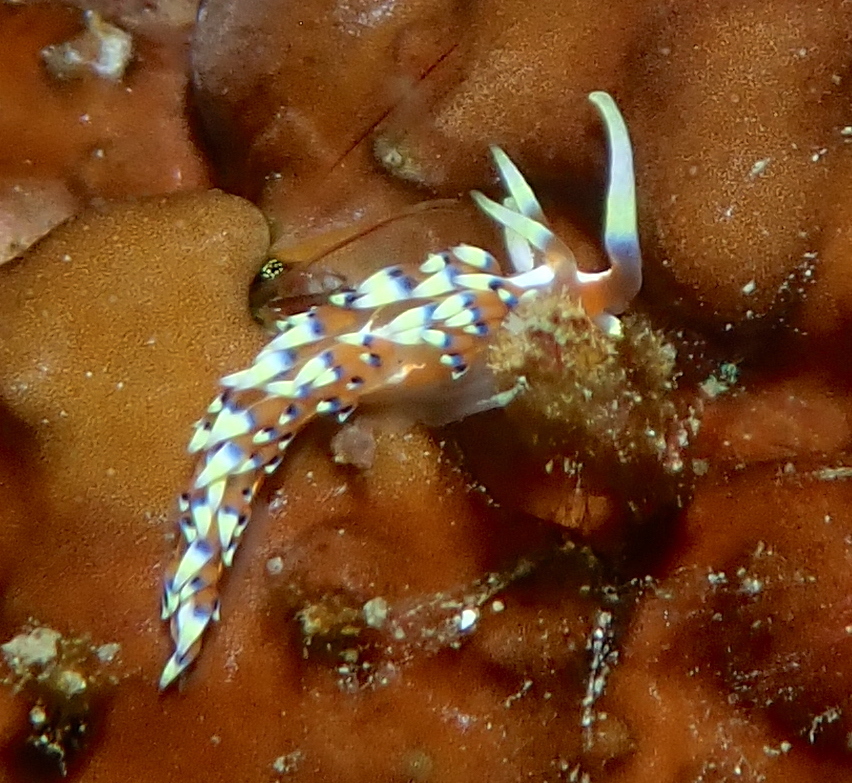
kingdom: Animalia
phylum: Mollusca
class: Gastropoda
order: Nudibranchia
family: Facelinidae
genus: Caloria
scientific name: Caloria indica
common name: Sea slug
